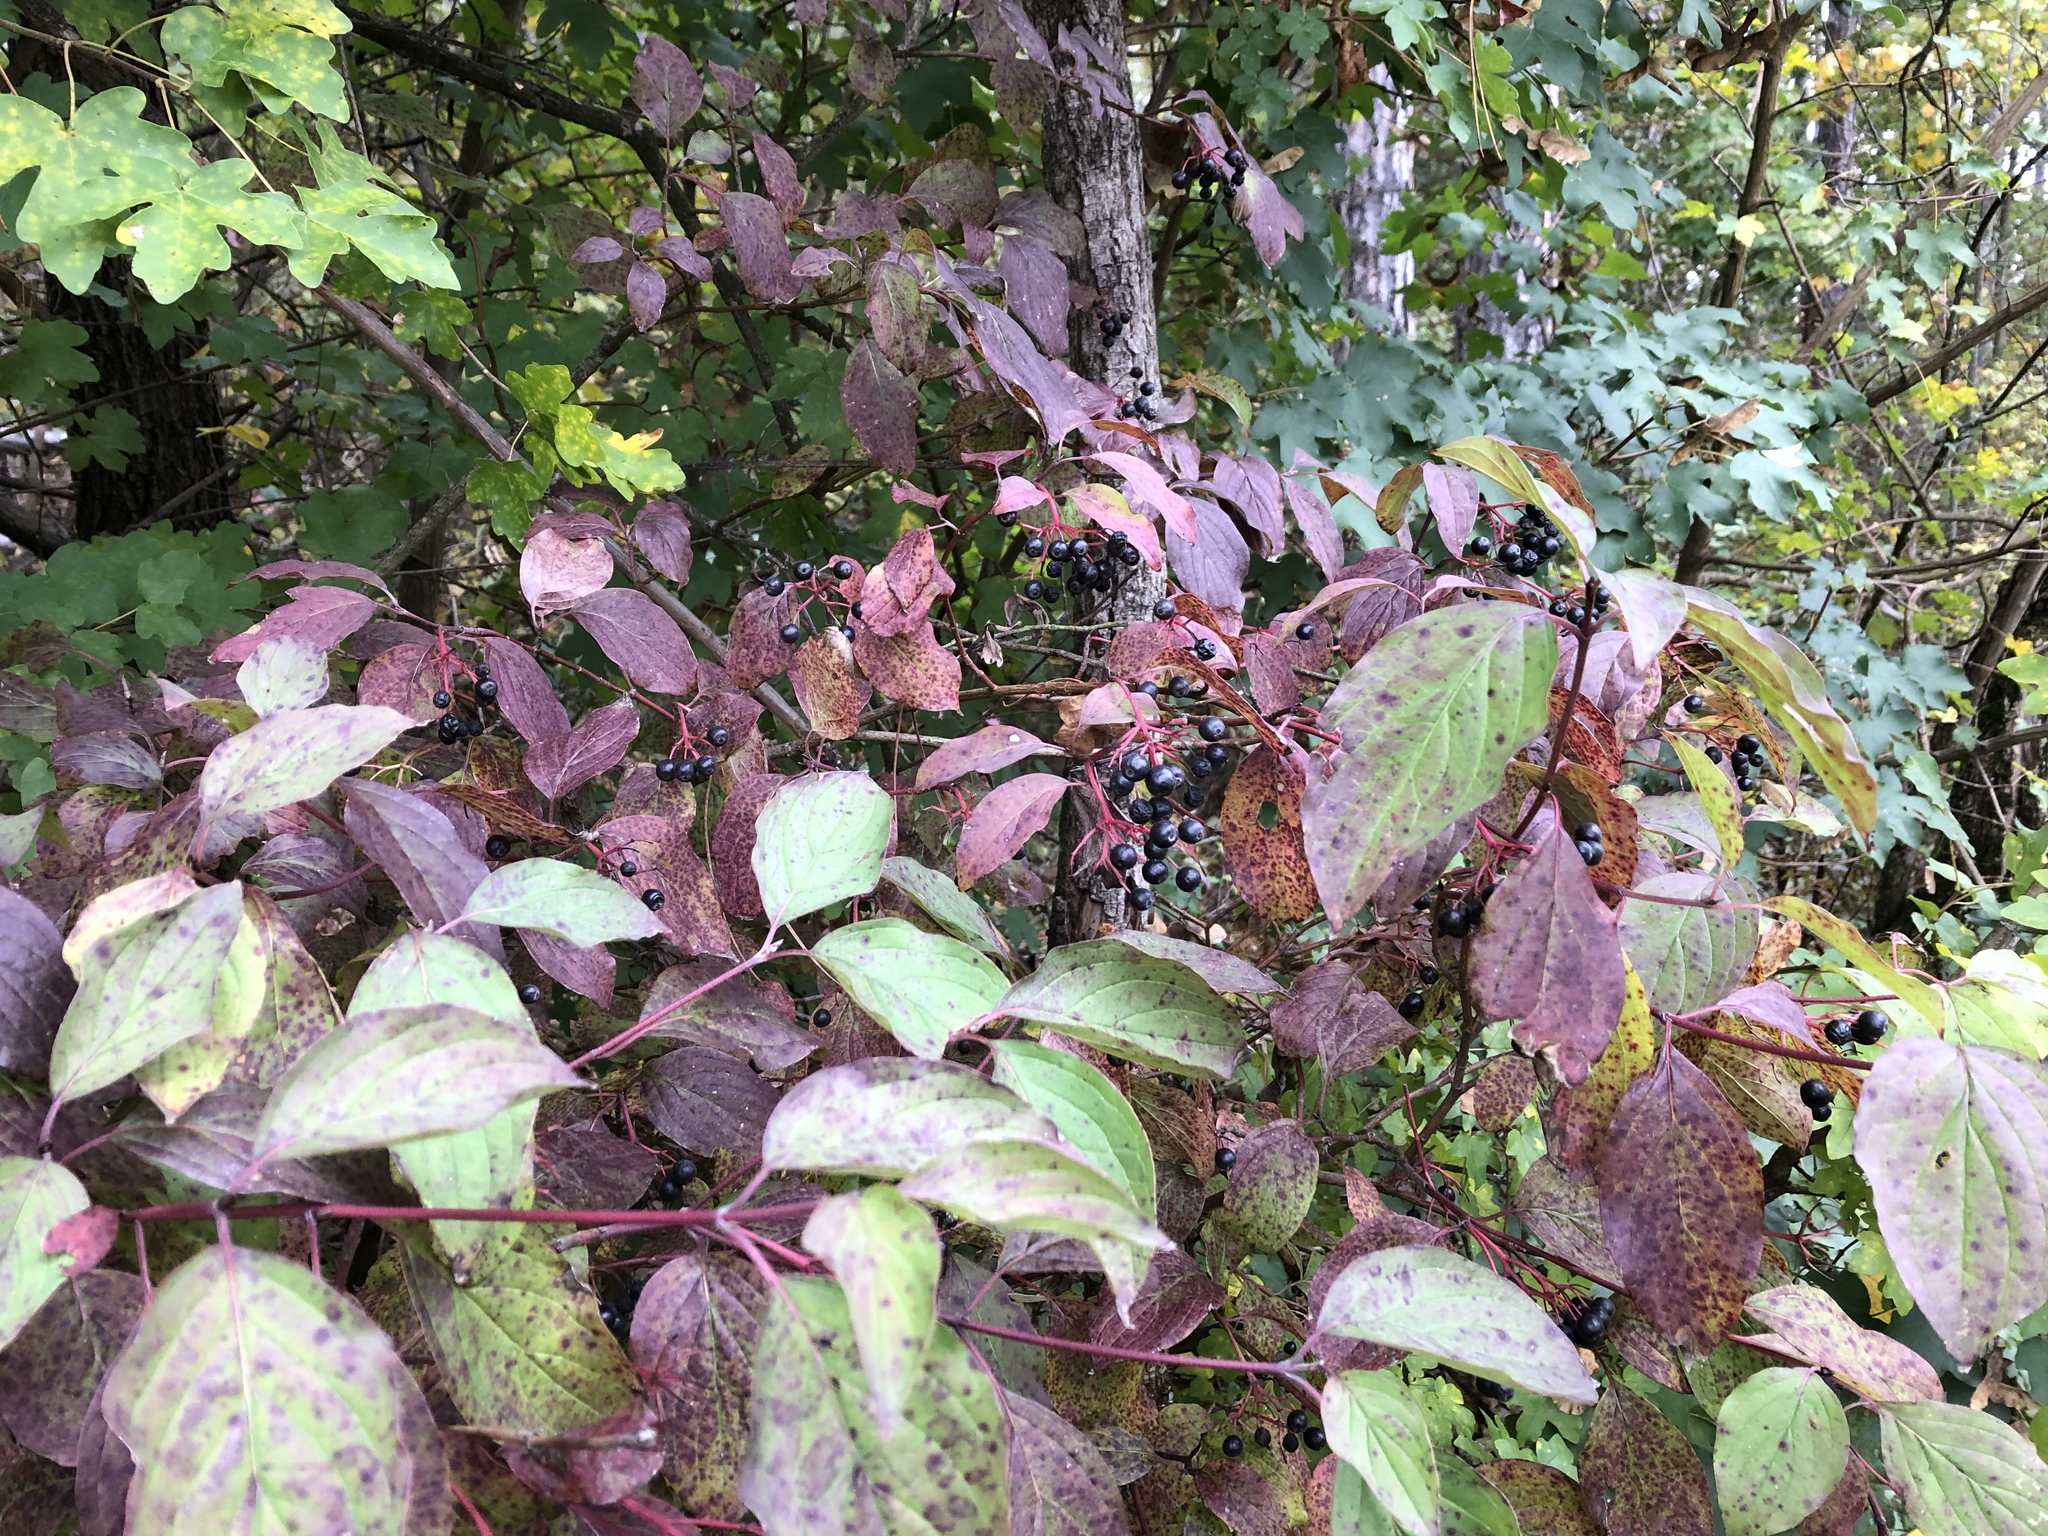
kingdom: Plantae
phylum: Tracheophyta
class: Magnoliopsida
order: Cornales
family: Cornaceae
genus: Cornus
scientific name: Cornus sanguinea
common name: Dogwood
